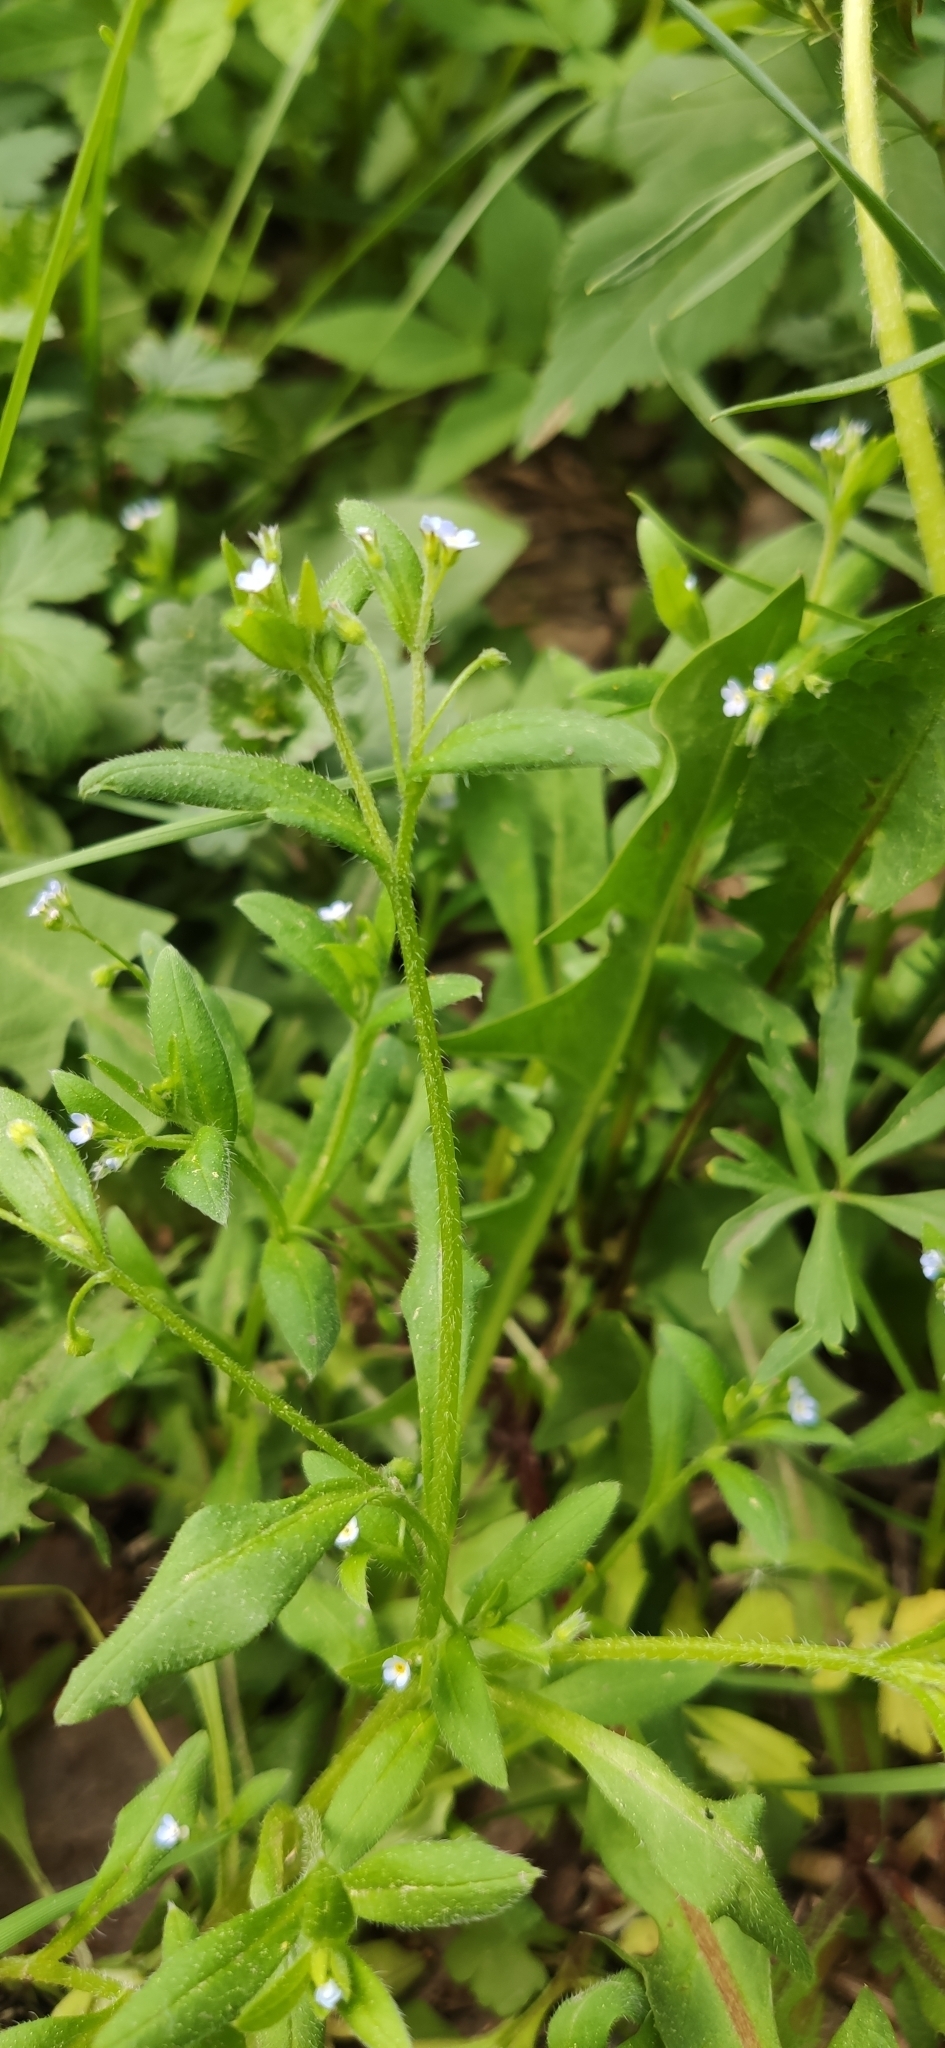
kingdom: Plantae
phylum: Tracheophyta
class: Magnoliopsida
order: Boraginales
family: Boraginaceae
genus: Myosotis
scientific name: Myosotis sparsiflora
